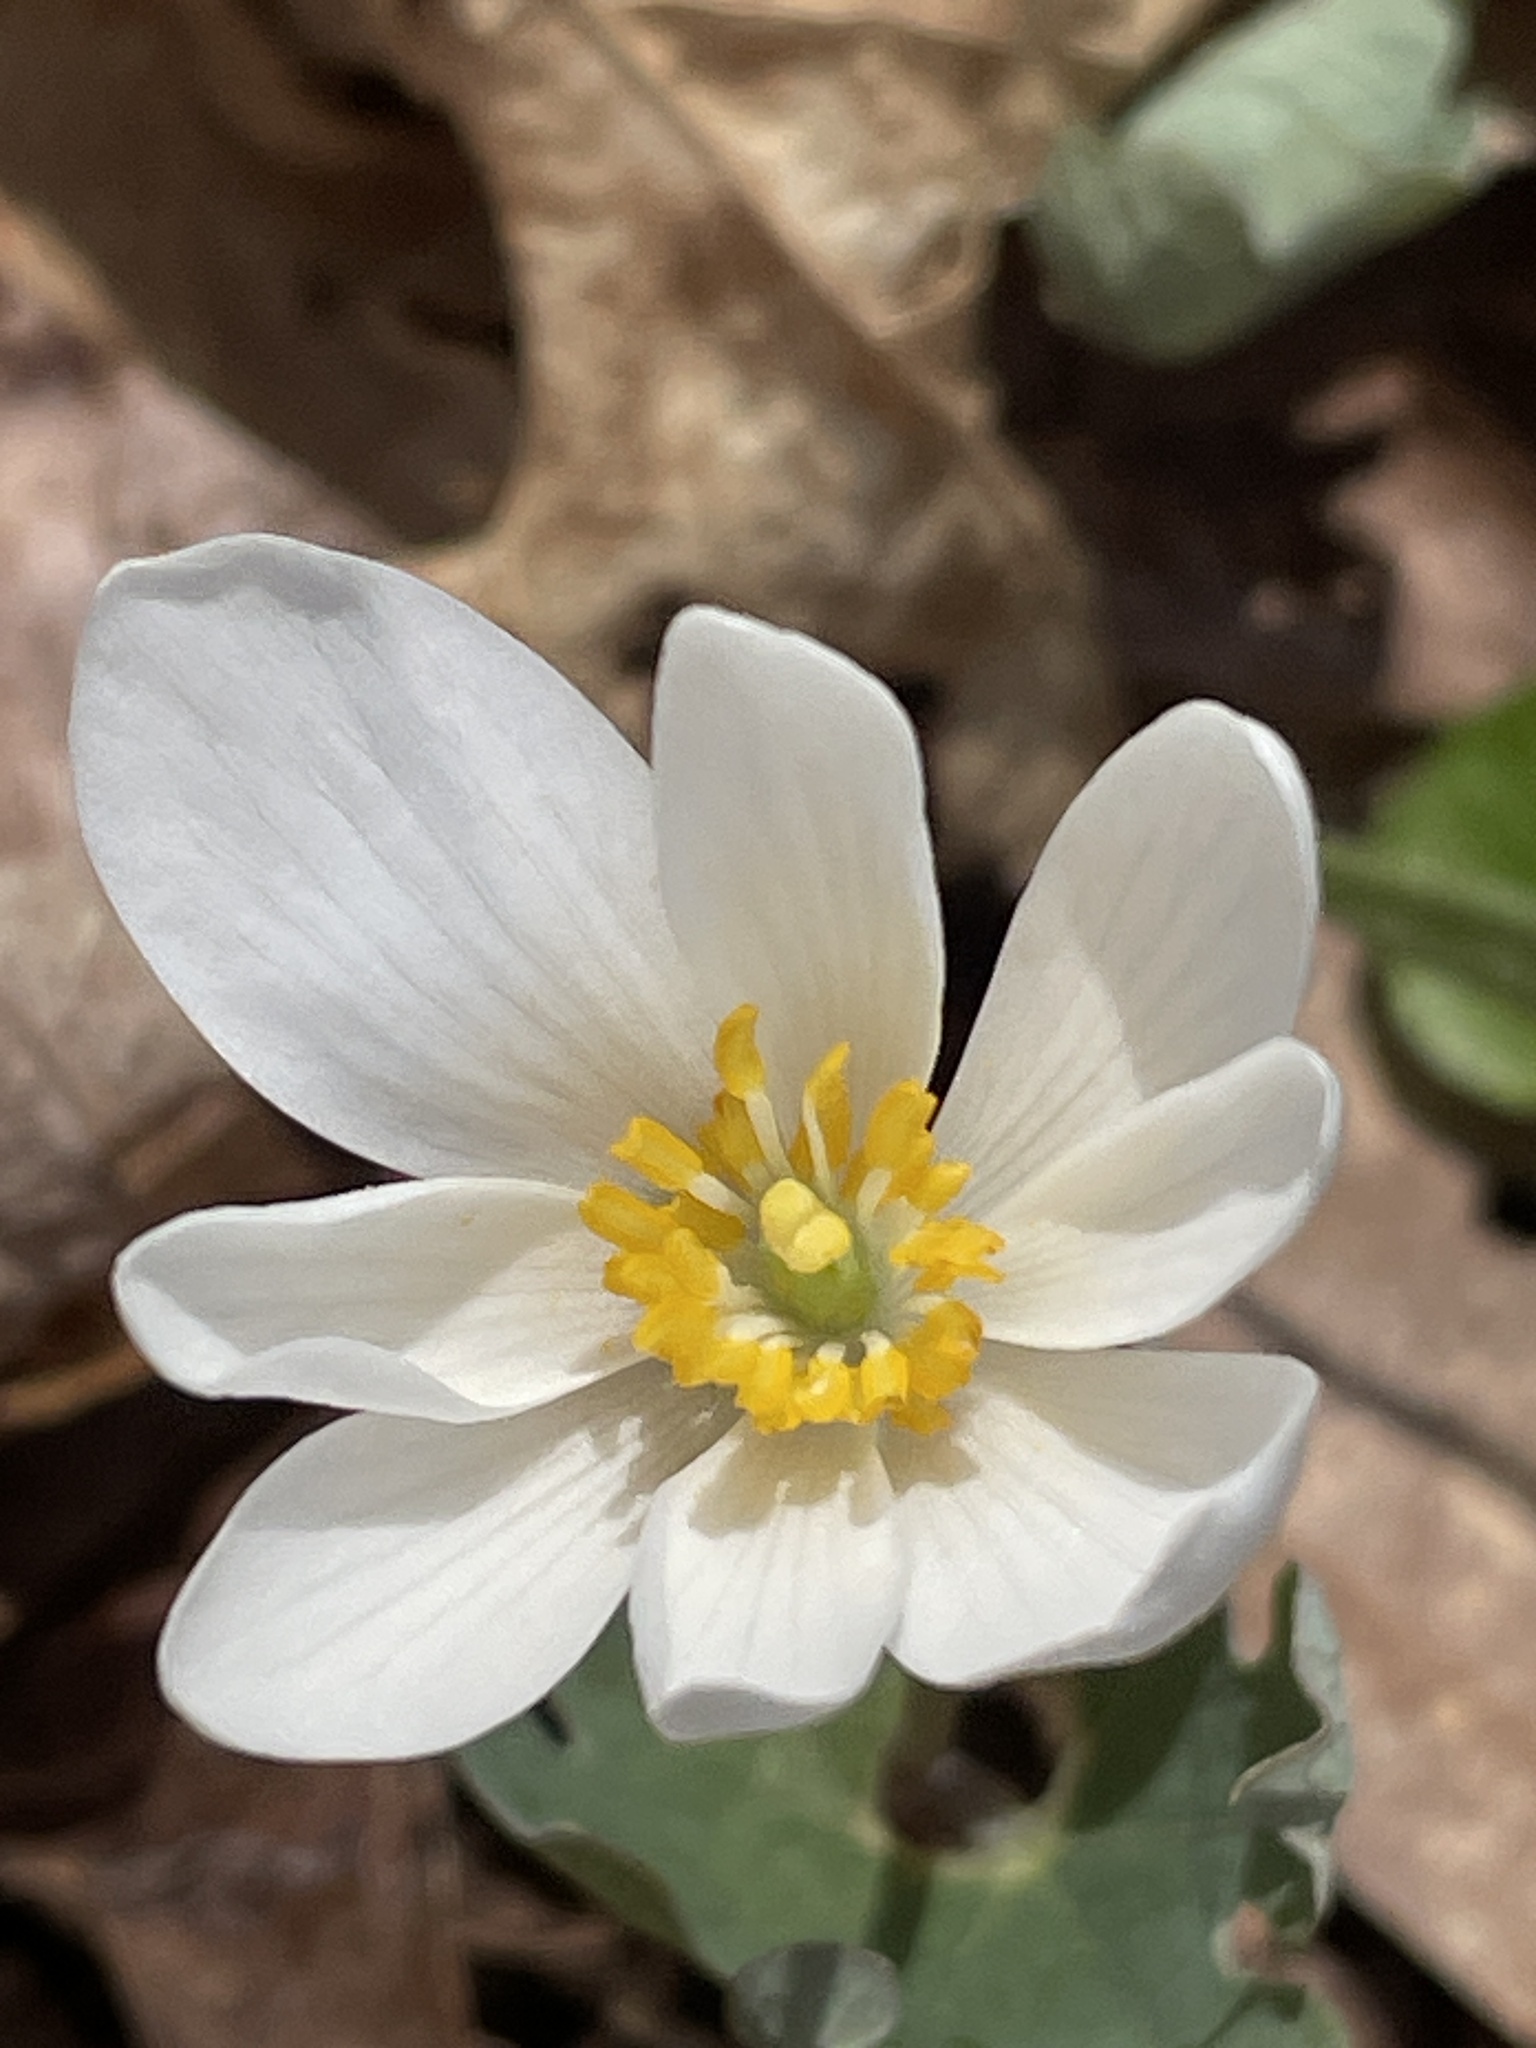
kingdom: Plantae
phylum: Tracheophyta
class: Magnoliopsida
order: Ranunculales
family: Papaveraceae
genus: Sanguinaria
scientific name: Sanguinaria canadensis
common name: Bloodroot
